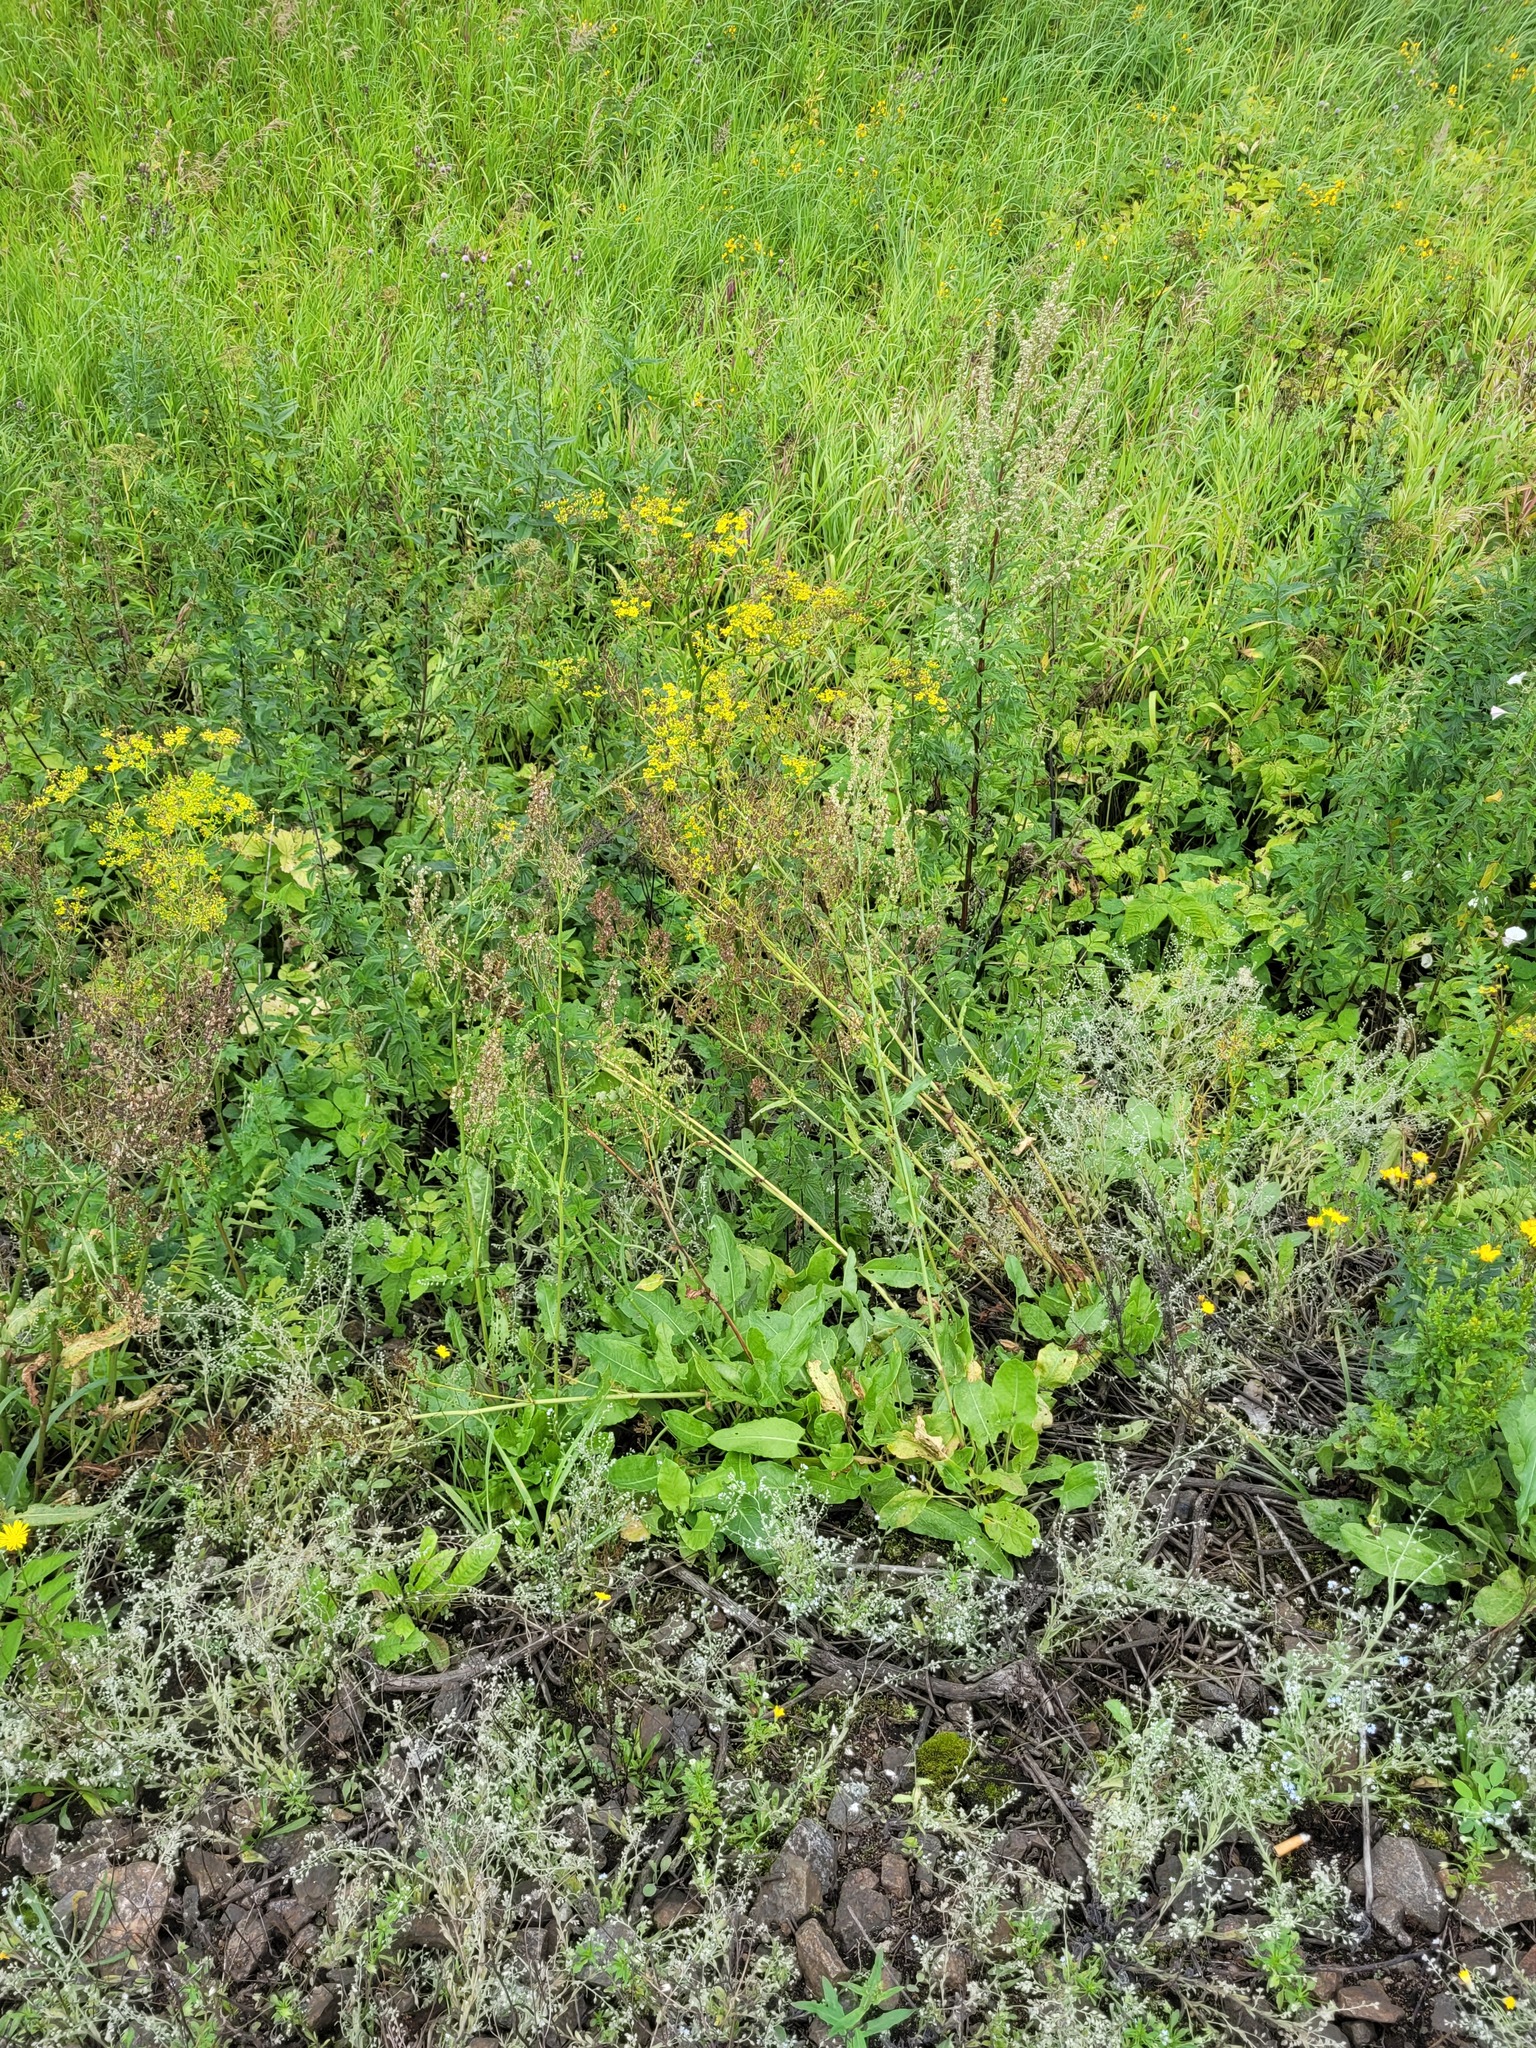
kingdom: Plantae
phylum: Tracheophyta
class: Magnoliopsida
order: Caryophyllales
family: Polygonaceae
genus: Rumex
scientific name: Rumex thyrsiflorus
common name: Garden sorrel
